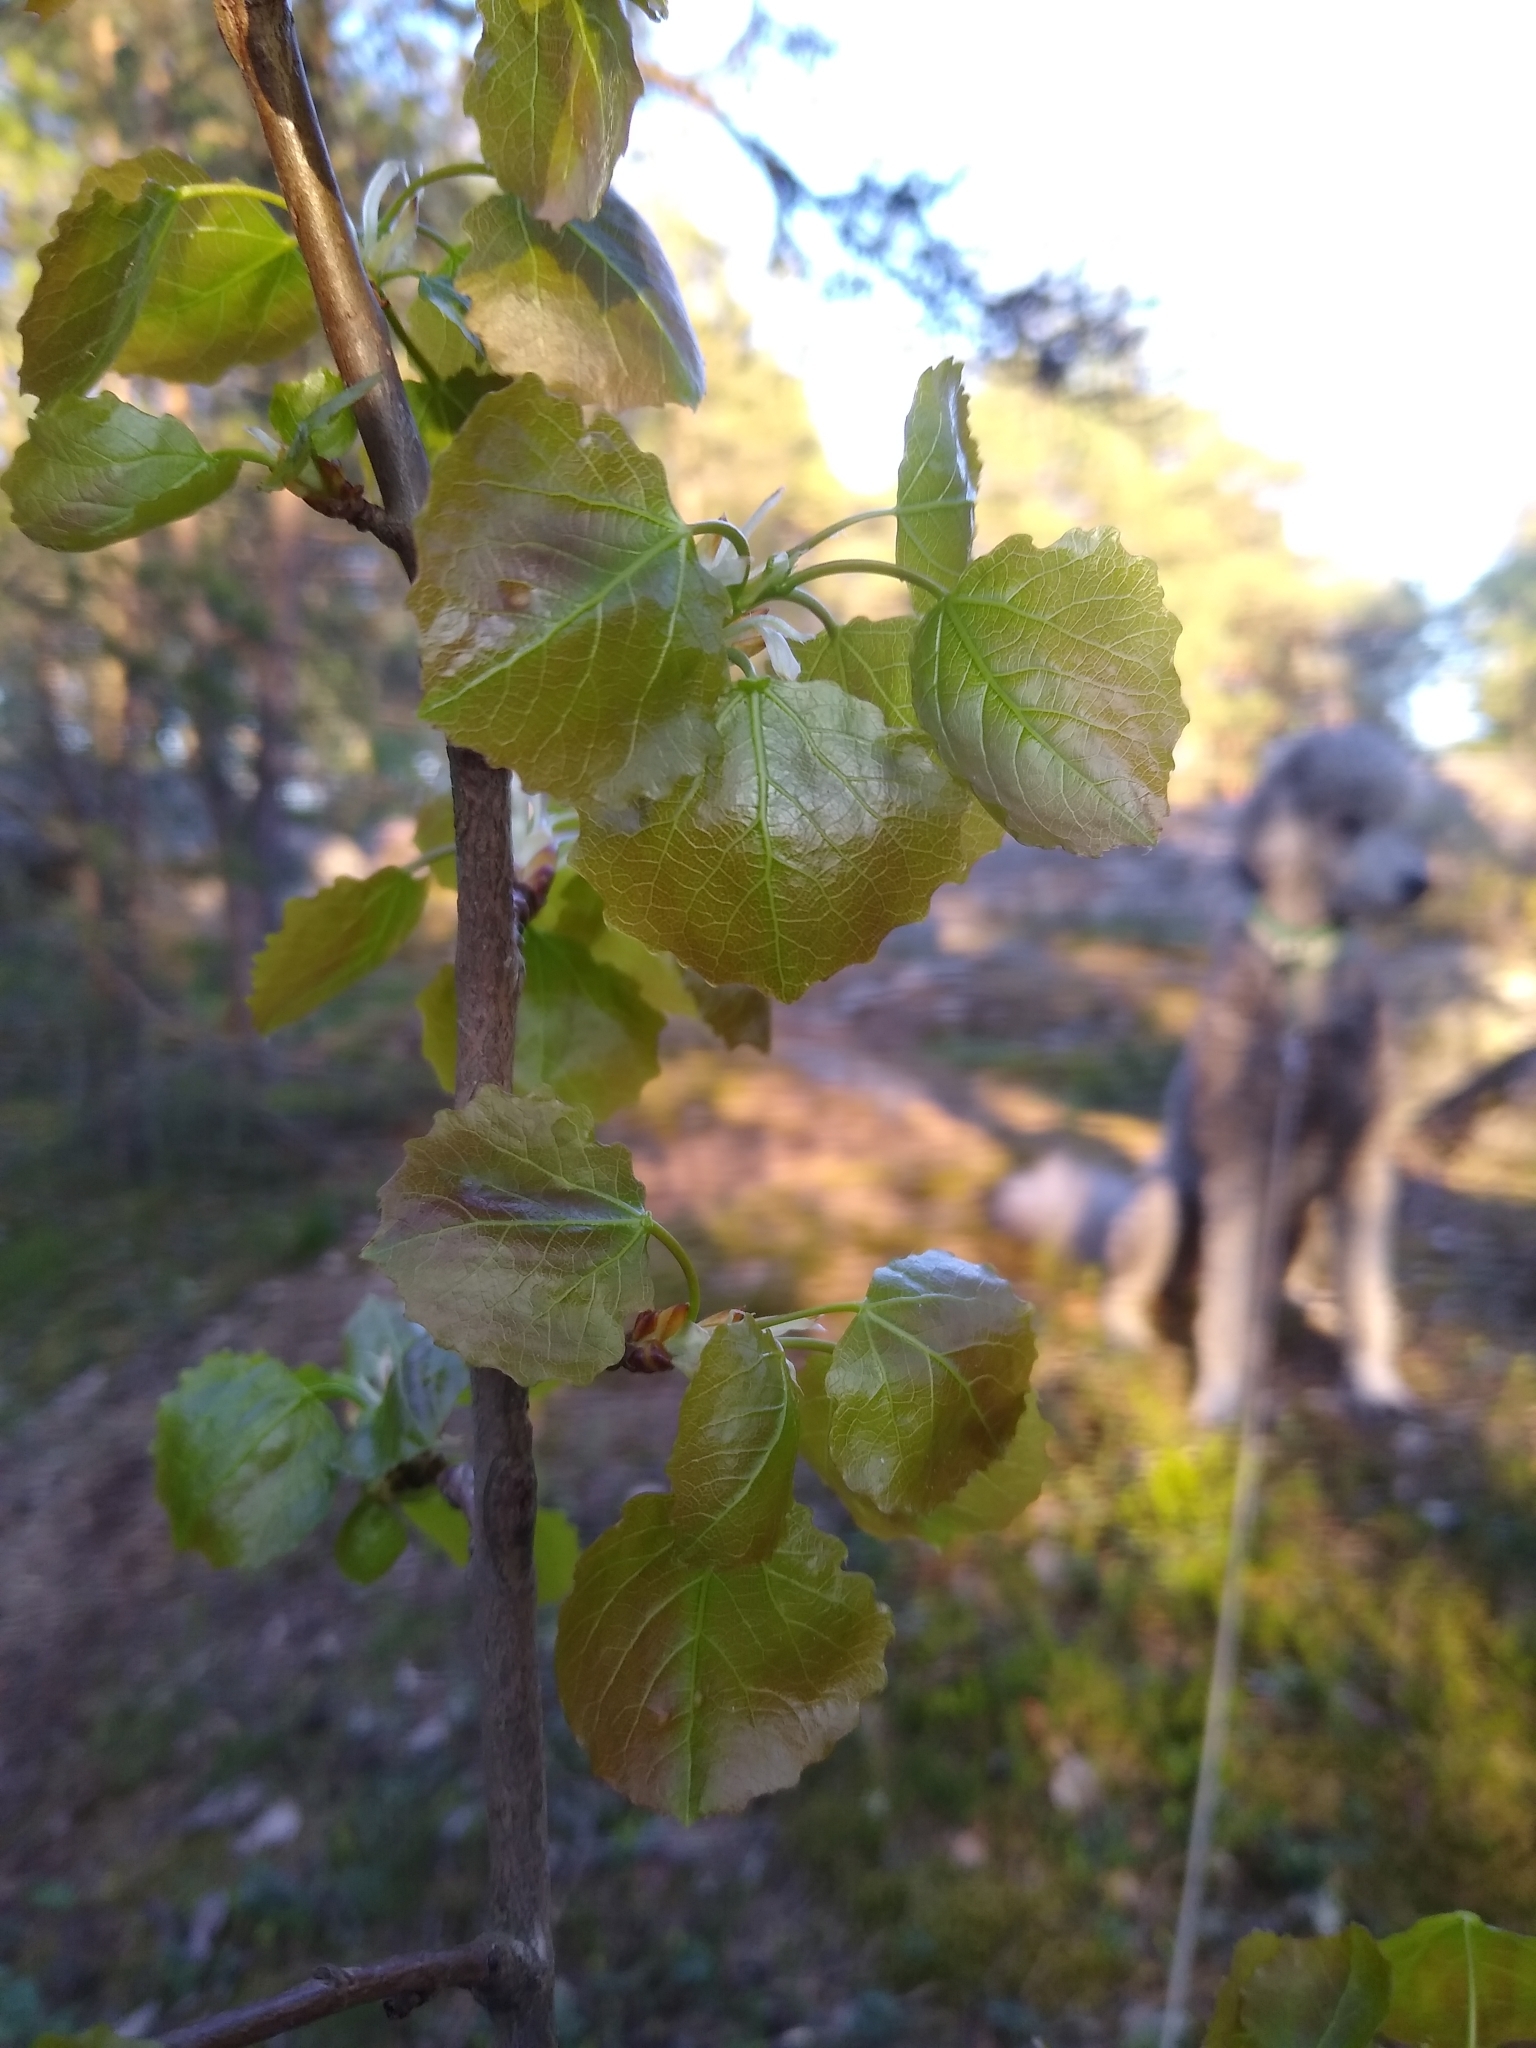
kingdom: Plantae
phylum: Tracheophyta
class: Magnoliopsida
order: Malpighiales
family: Salicaceae
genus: Populus
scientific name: Populus tremula
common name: European aspen
